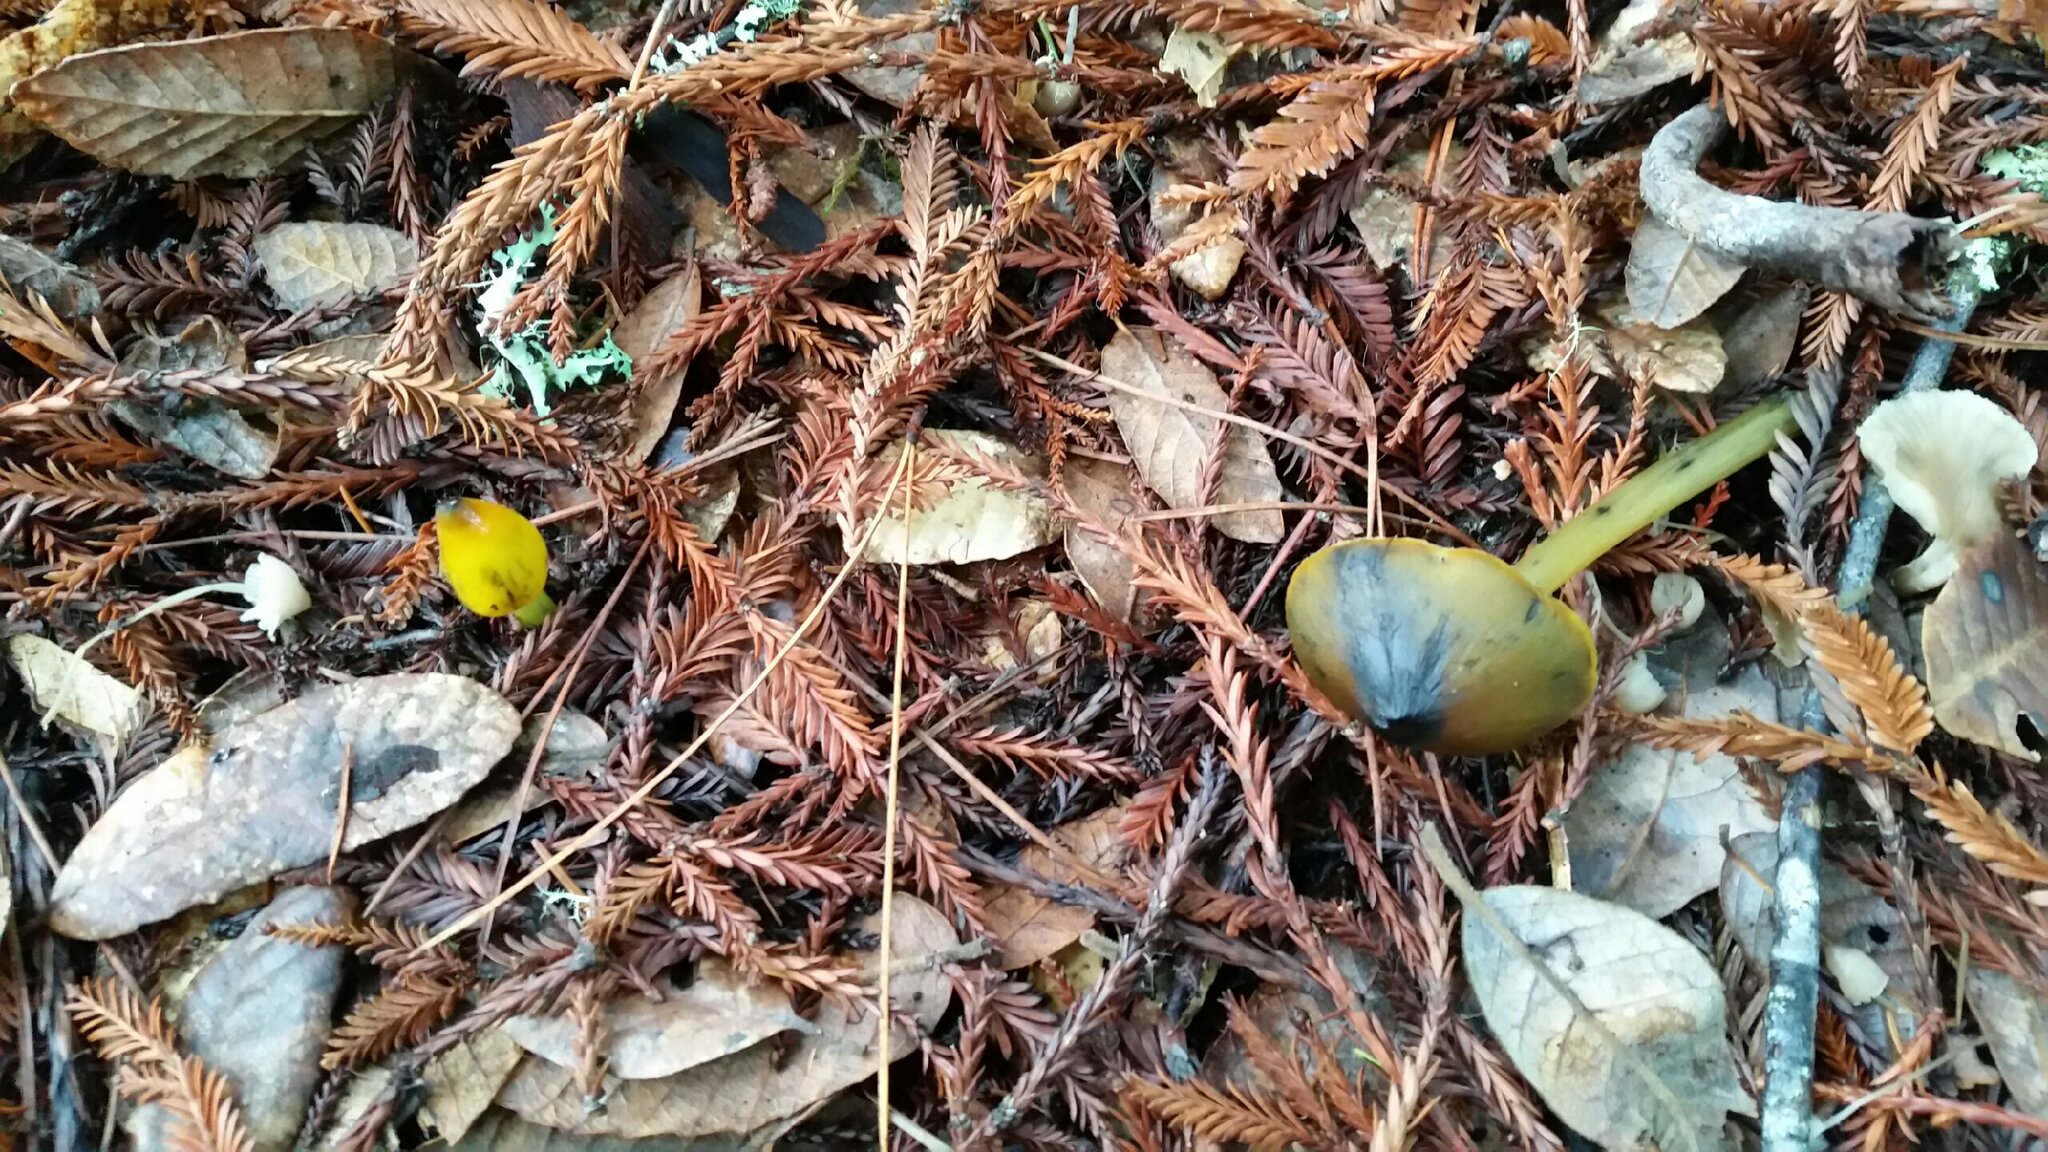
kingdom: Fungi
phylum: Basidiomycota
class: Agaricomycetes
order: Agaricales
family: Hygrophoraceae
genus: Hygrocybe
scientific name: Hygrocybe singeri
